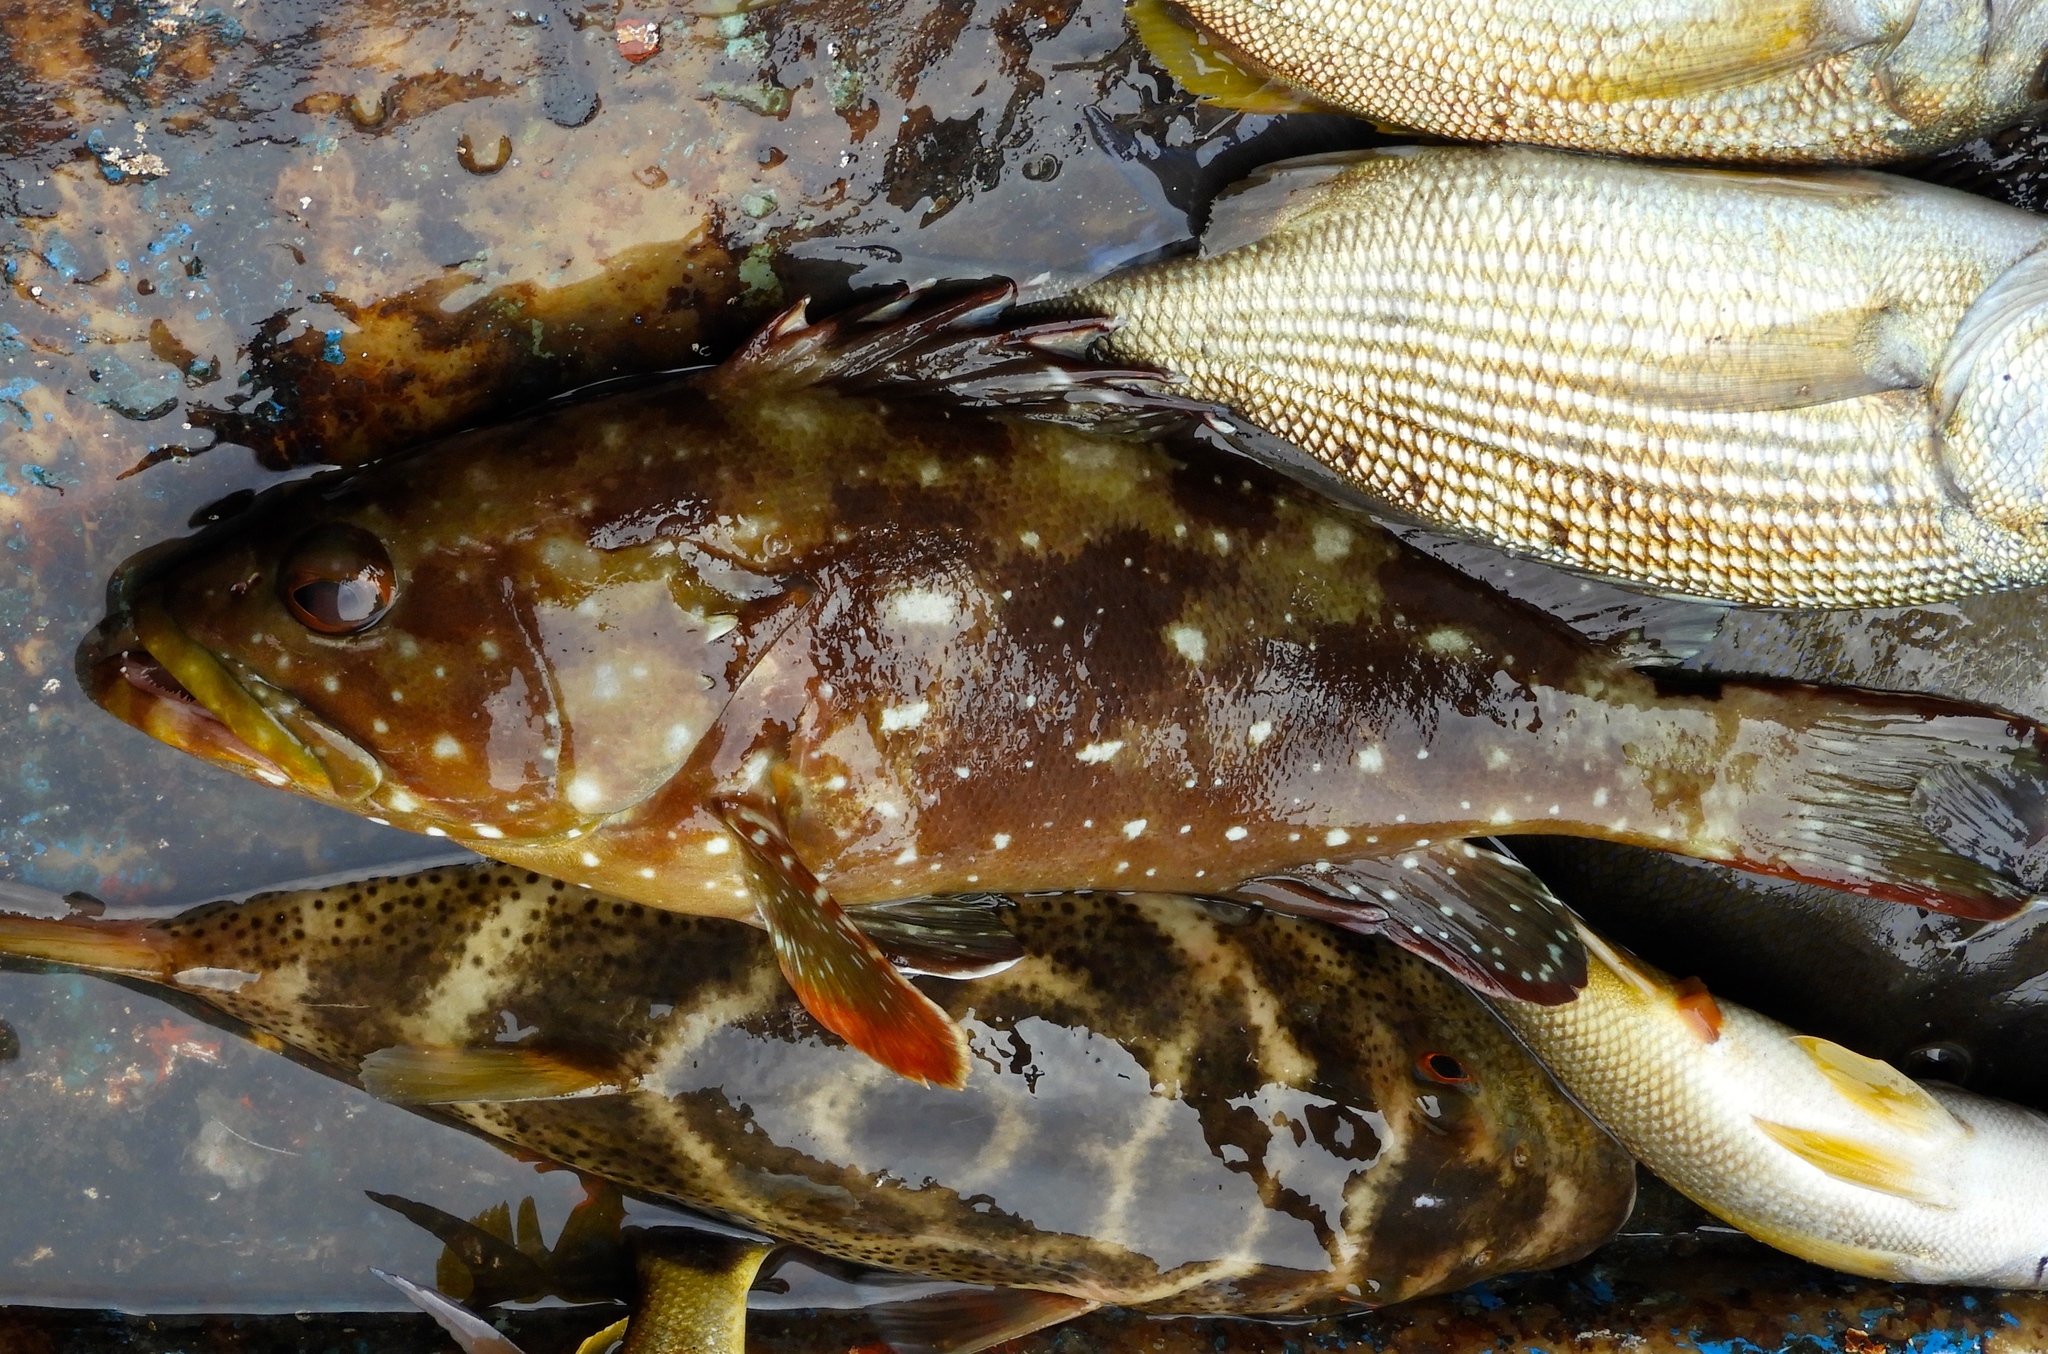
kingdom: Animalia
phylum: Chordata
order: Perciformes
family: Serranidae
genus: Epinephelus
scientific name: Epinephelus labriformis
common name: Flag cabrilla
